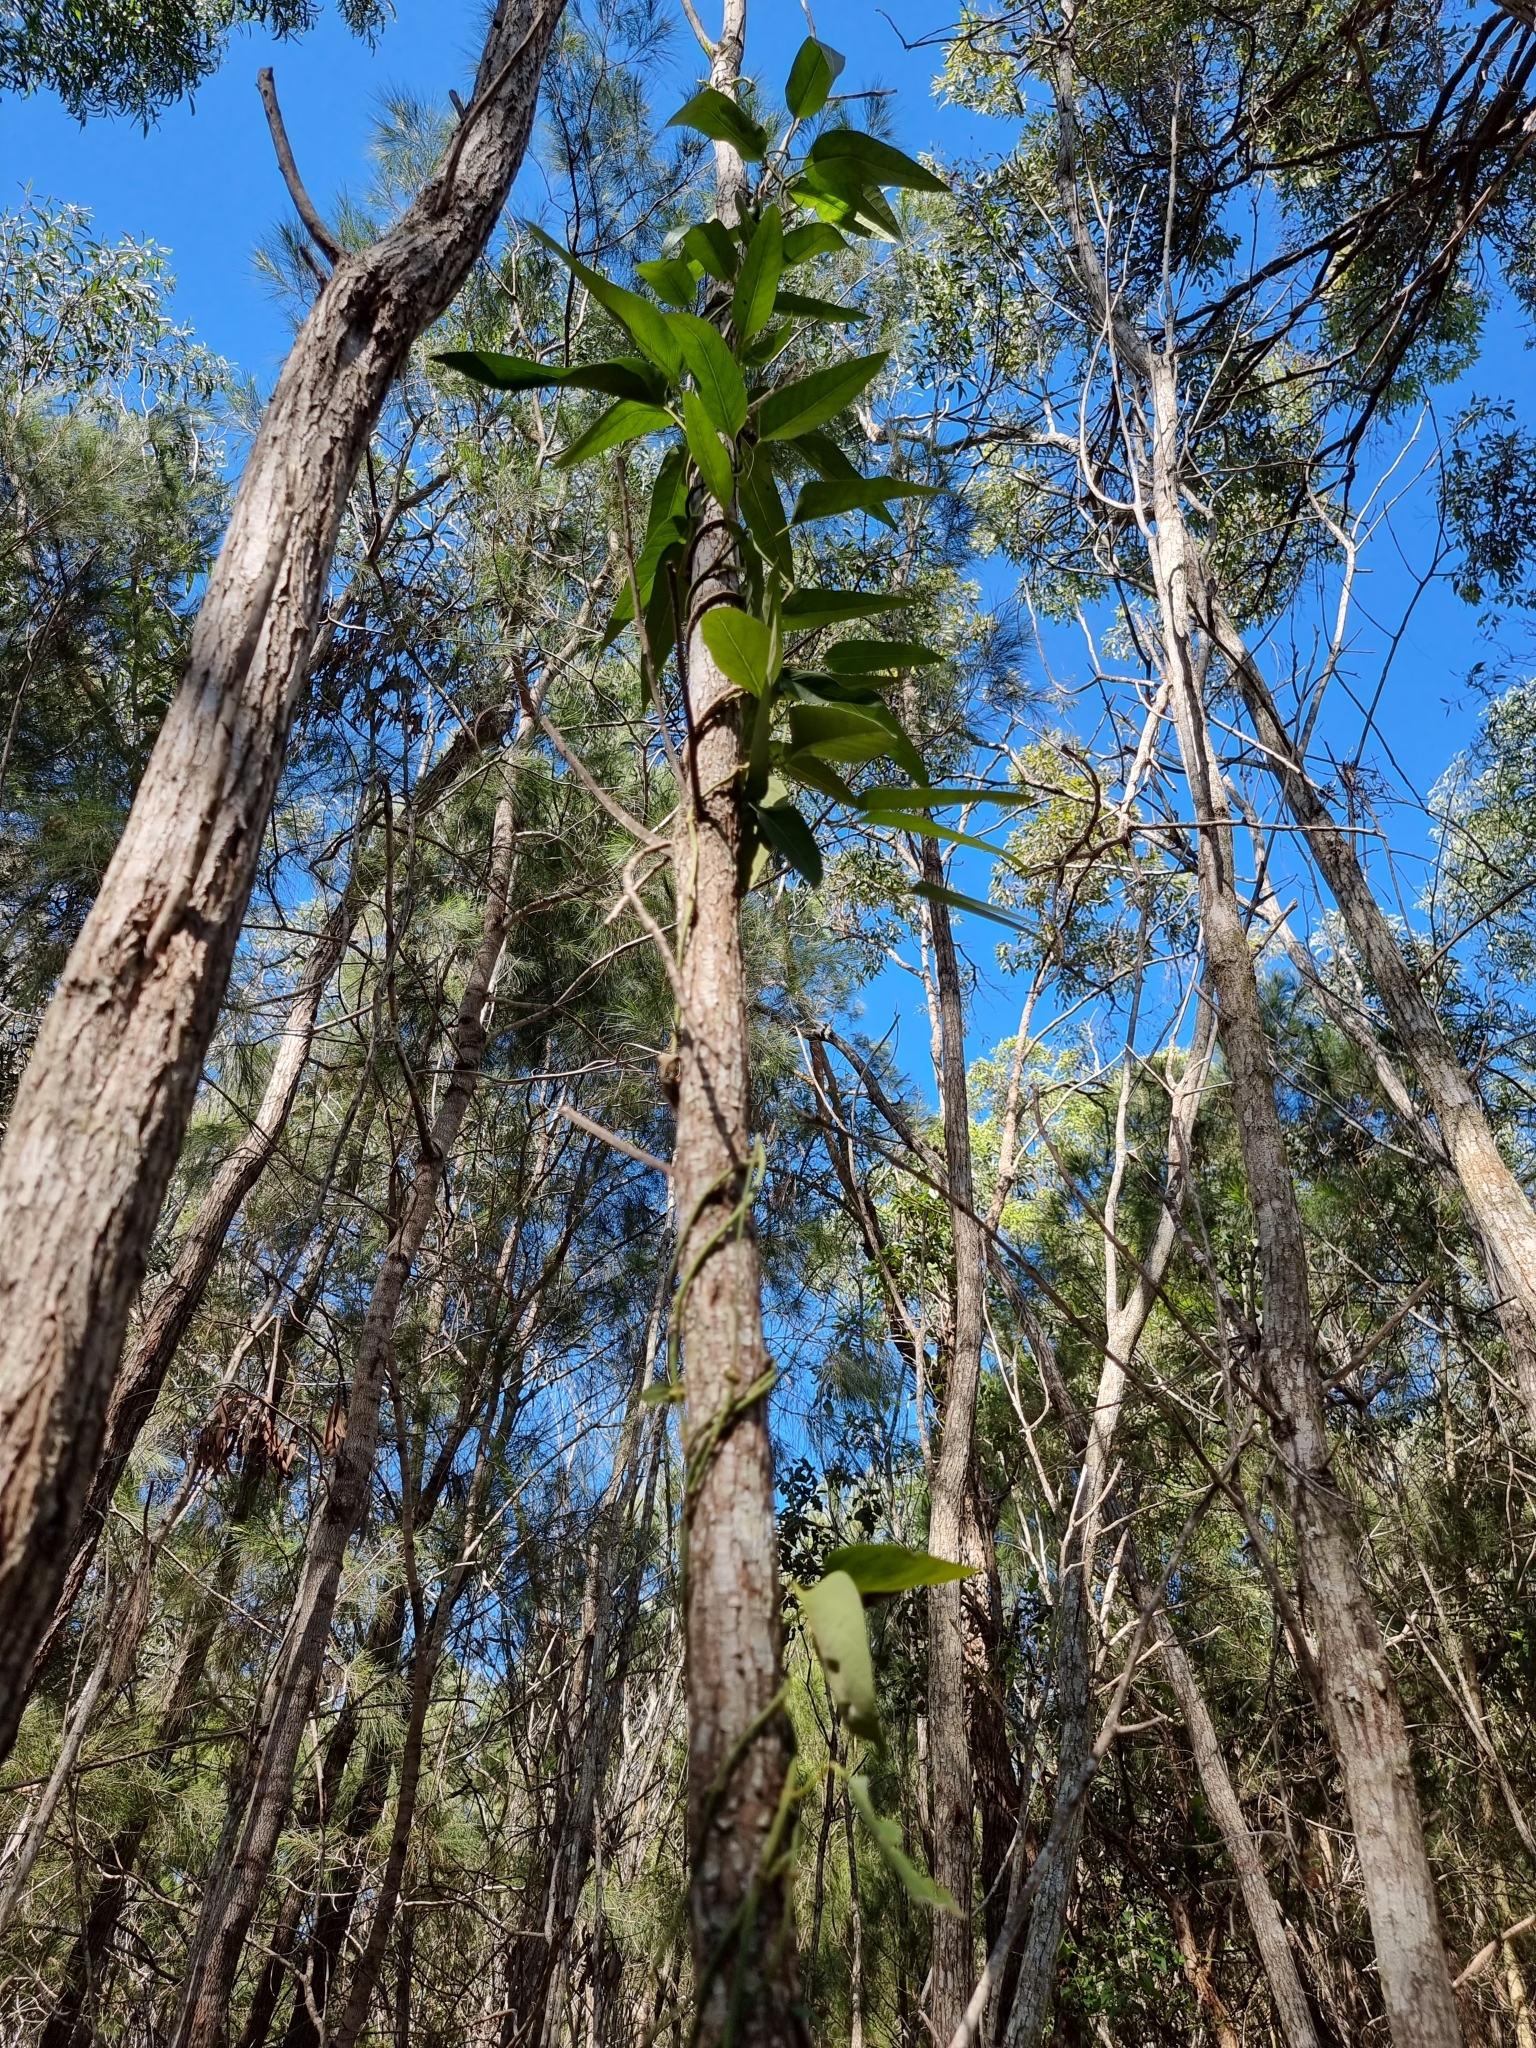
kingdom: Plantae
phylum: Tracheophyta
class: Magnoliopsida
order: Gentianales
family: Apocynaceae
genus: Parsonsia
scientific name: Parsonsia brisbanensis
